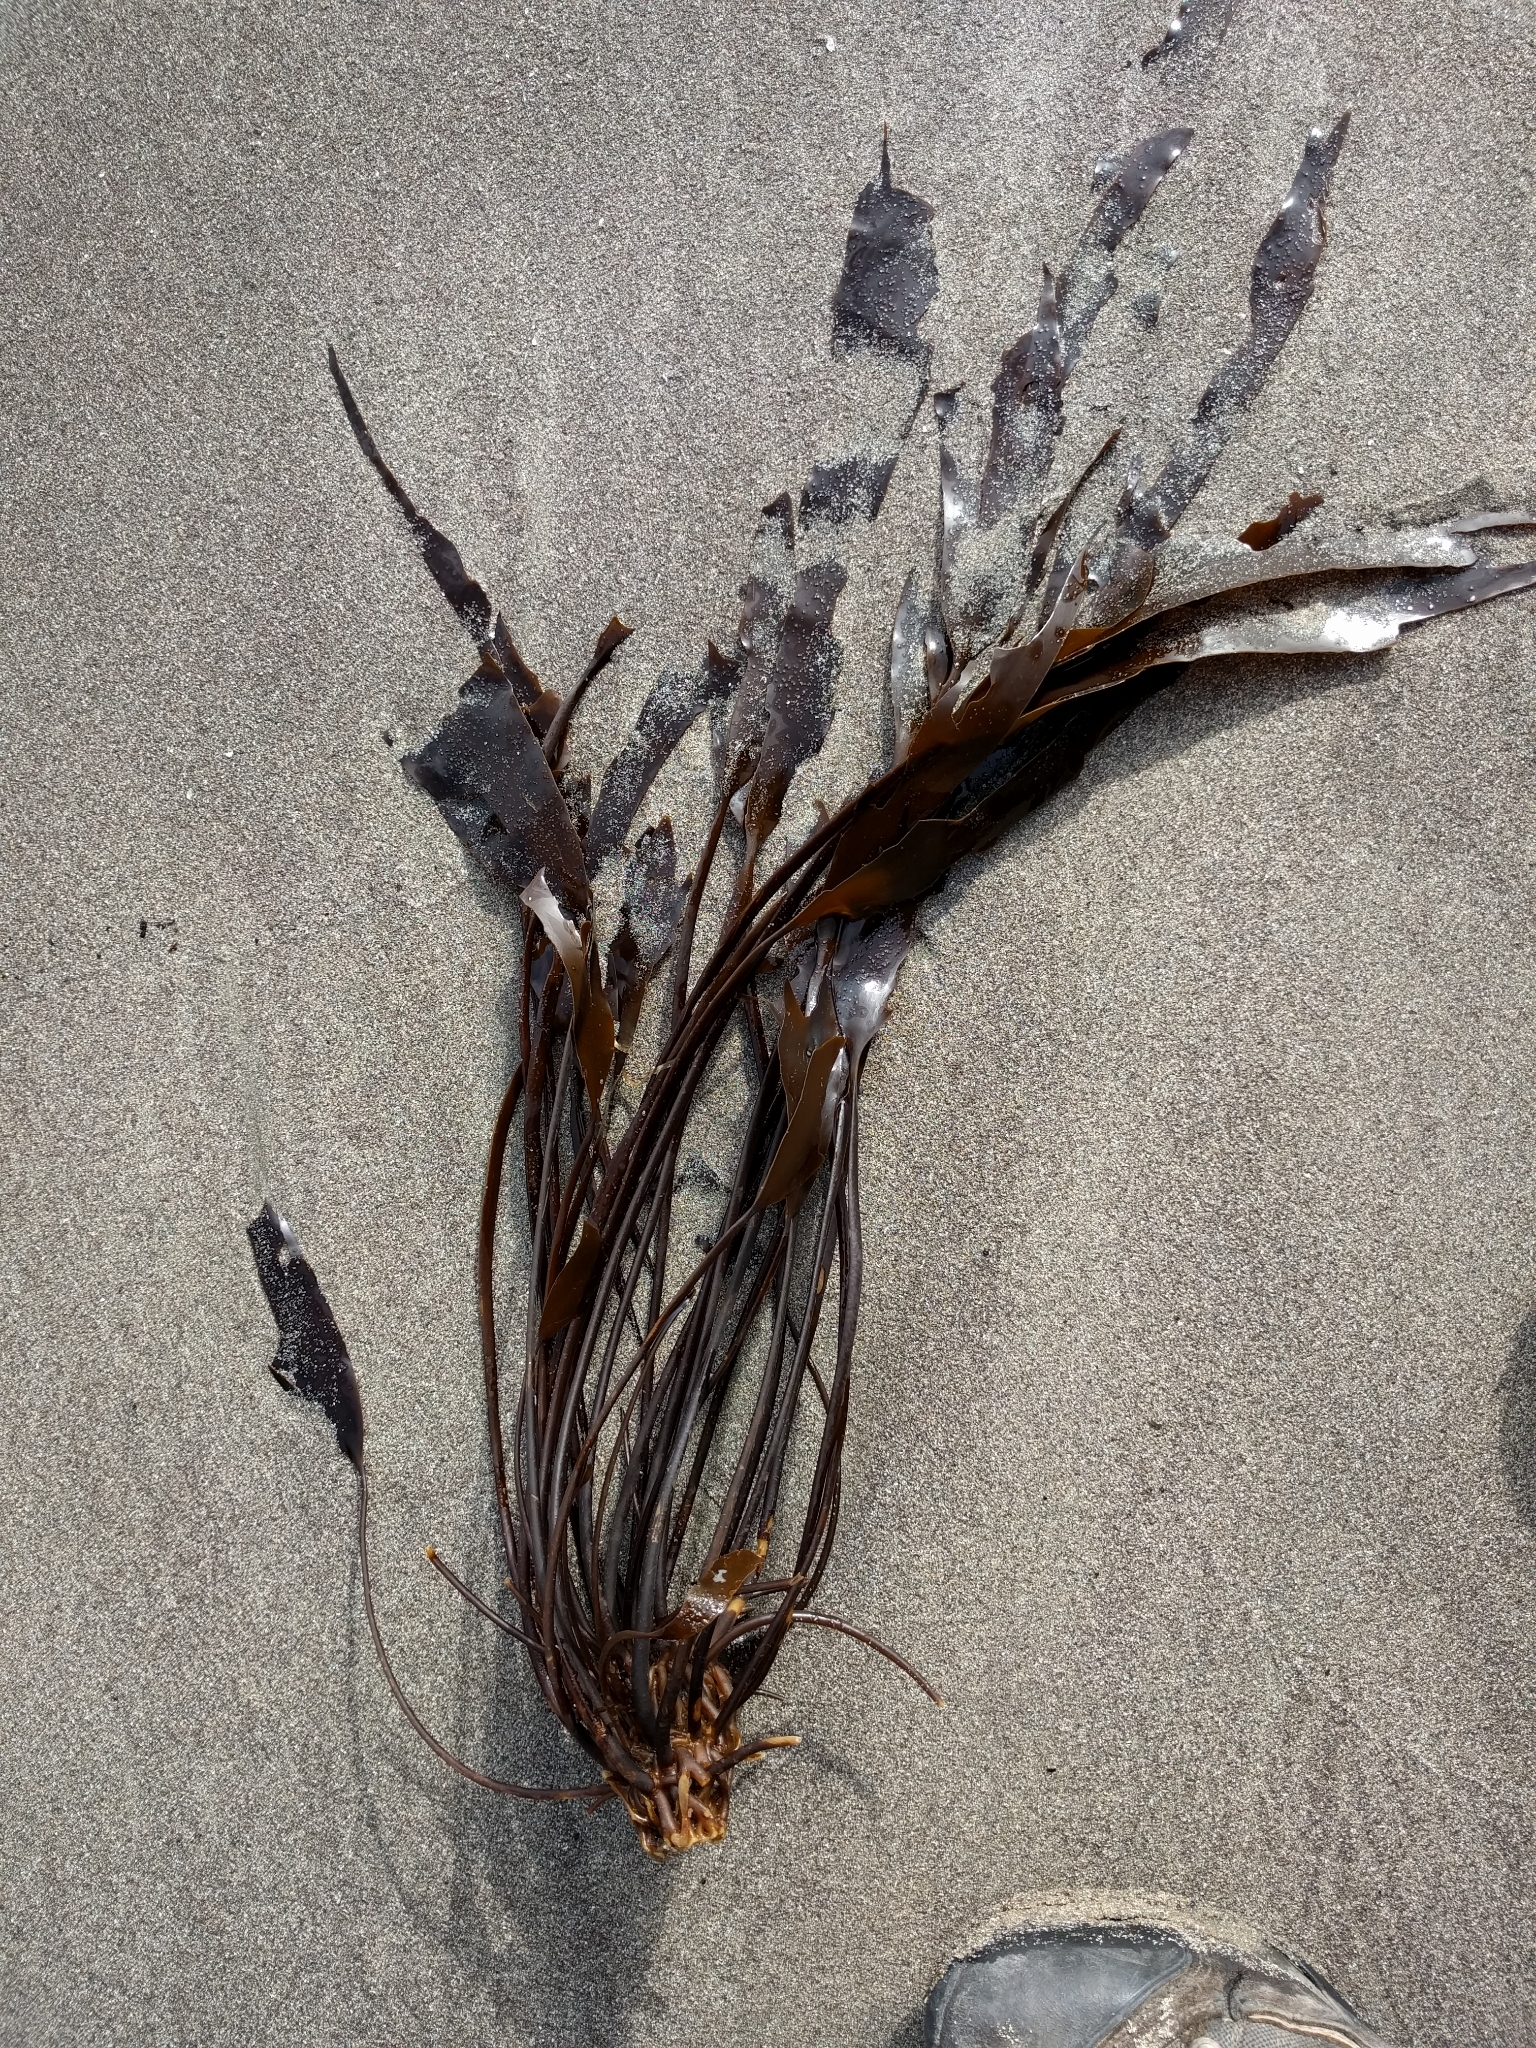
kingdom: Chromista
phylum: Ochrophyta
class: Phaeophyceae
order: Laminariales
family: Laminariaceae
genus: Laminaria
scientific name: Laminaria sinclairii
